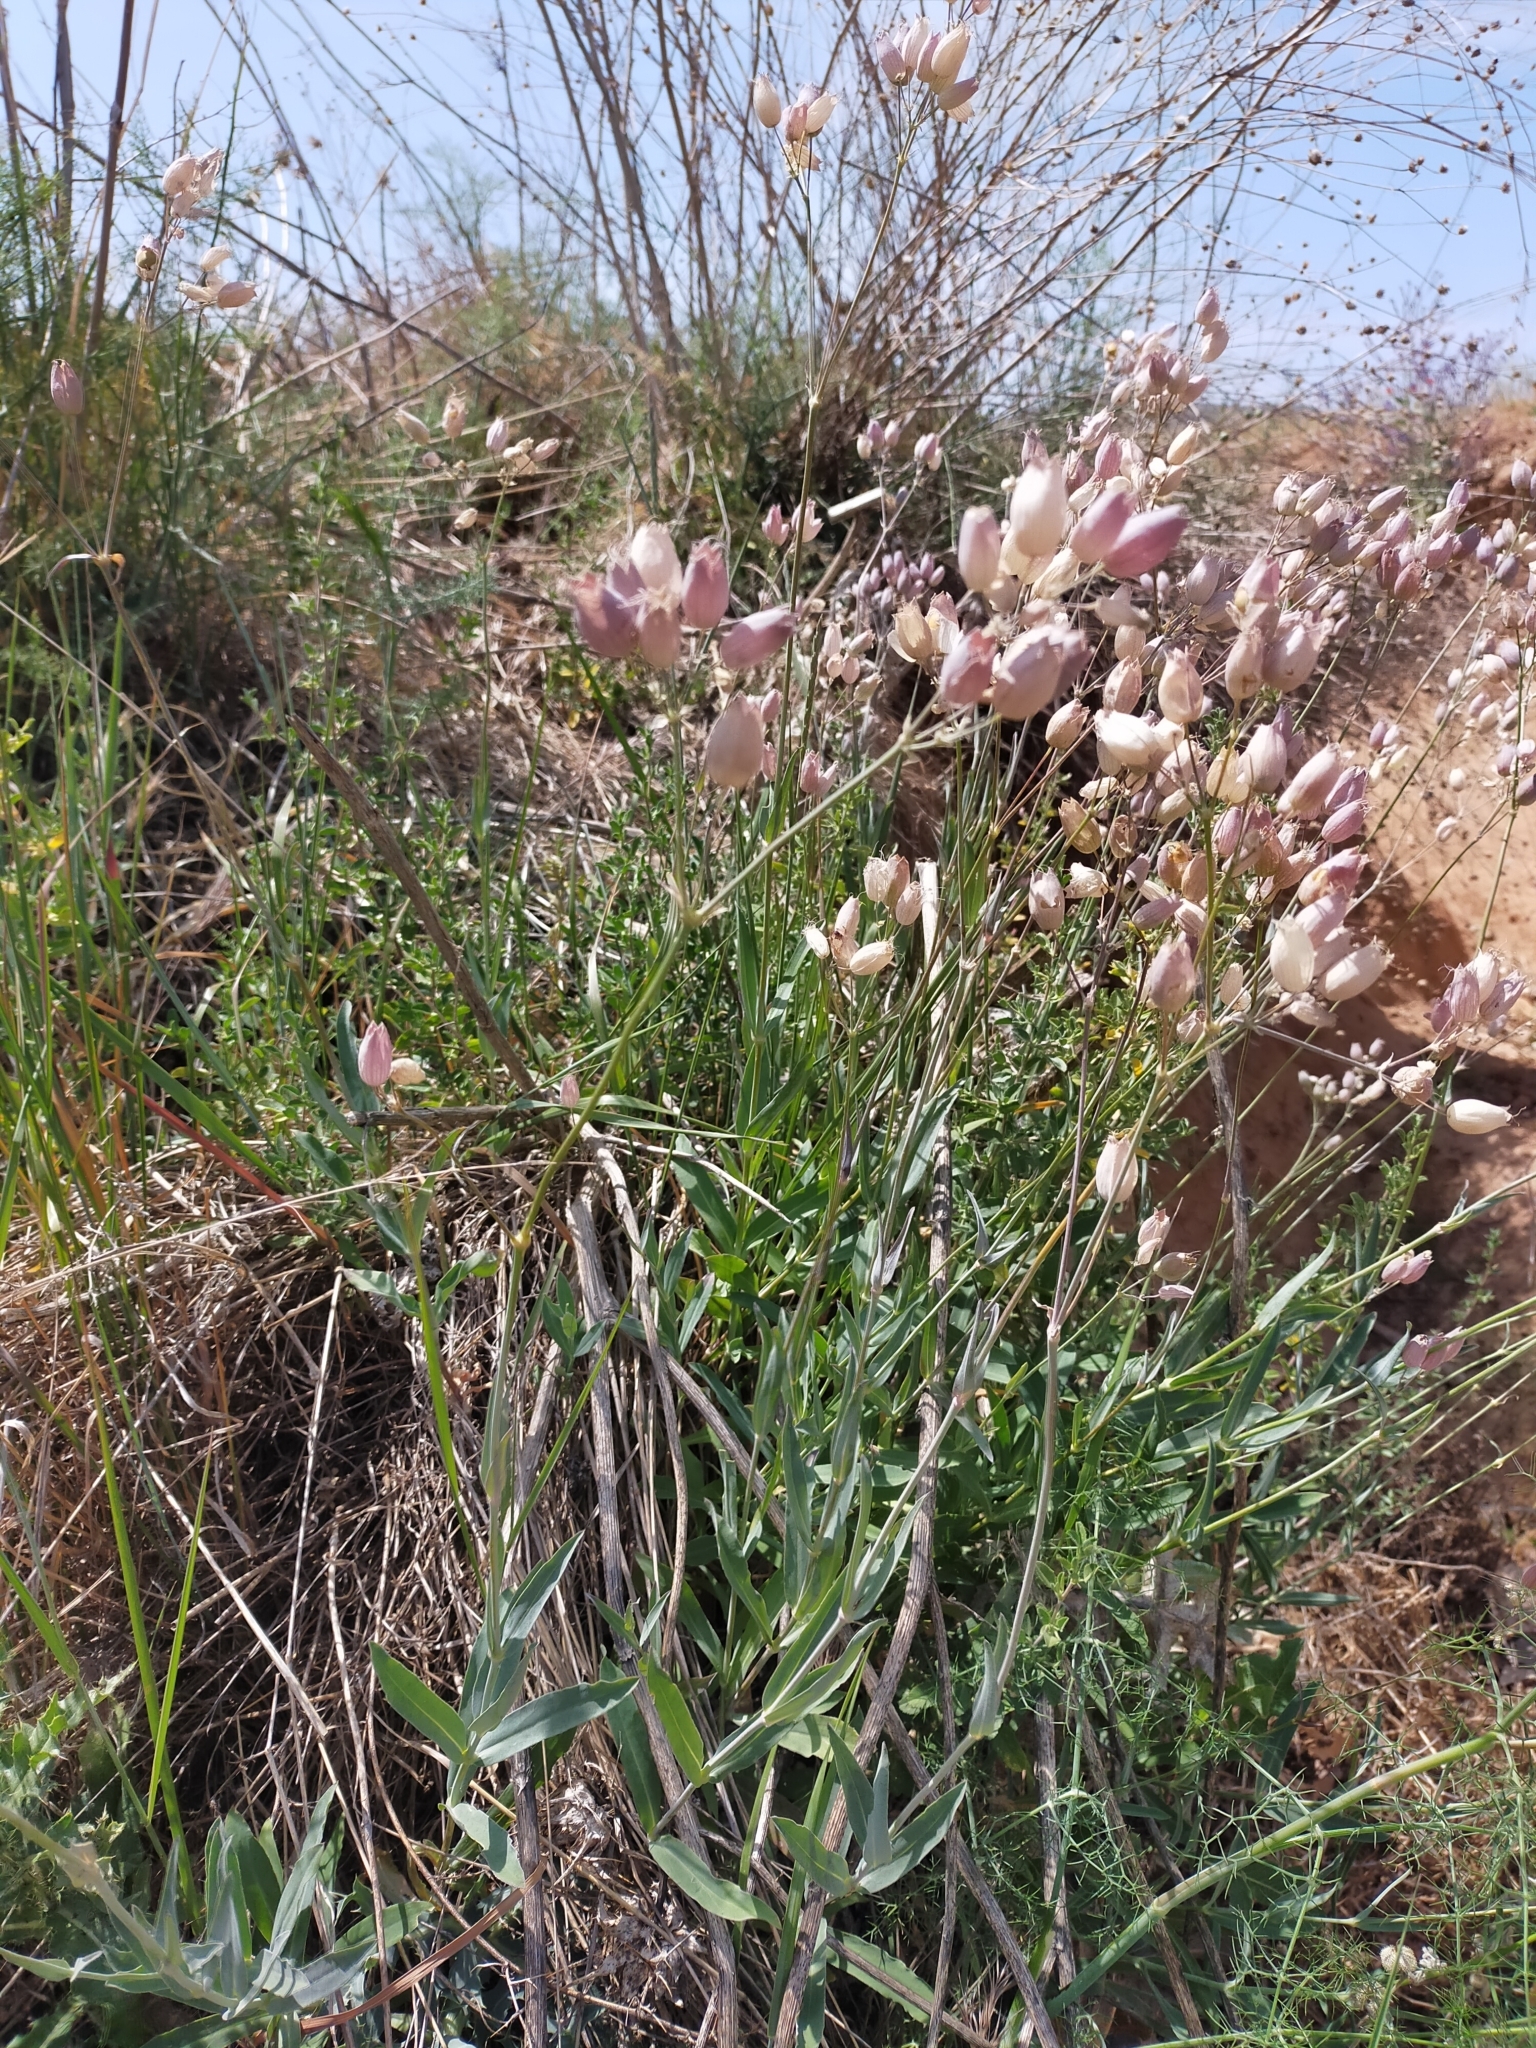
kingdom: Plantae
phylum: Tracheophyta
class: Magnoliopsida
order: Caryophyllales
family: Caryophyllaceae
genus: Silene
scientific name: Silene vulgaris
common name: Bladder campion
